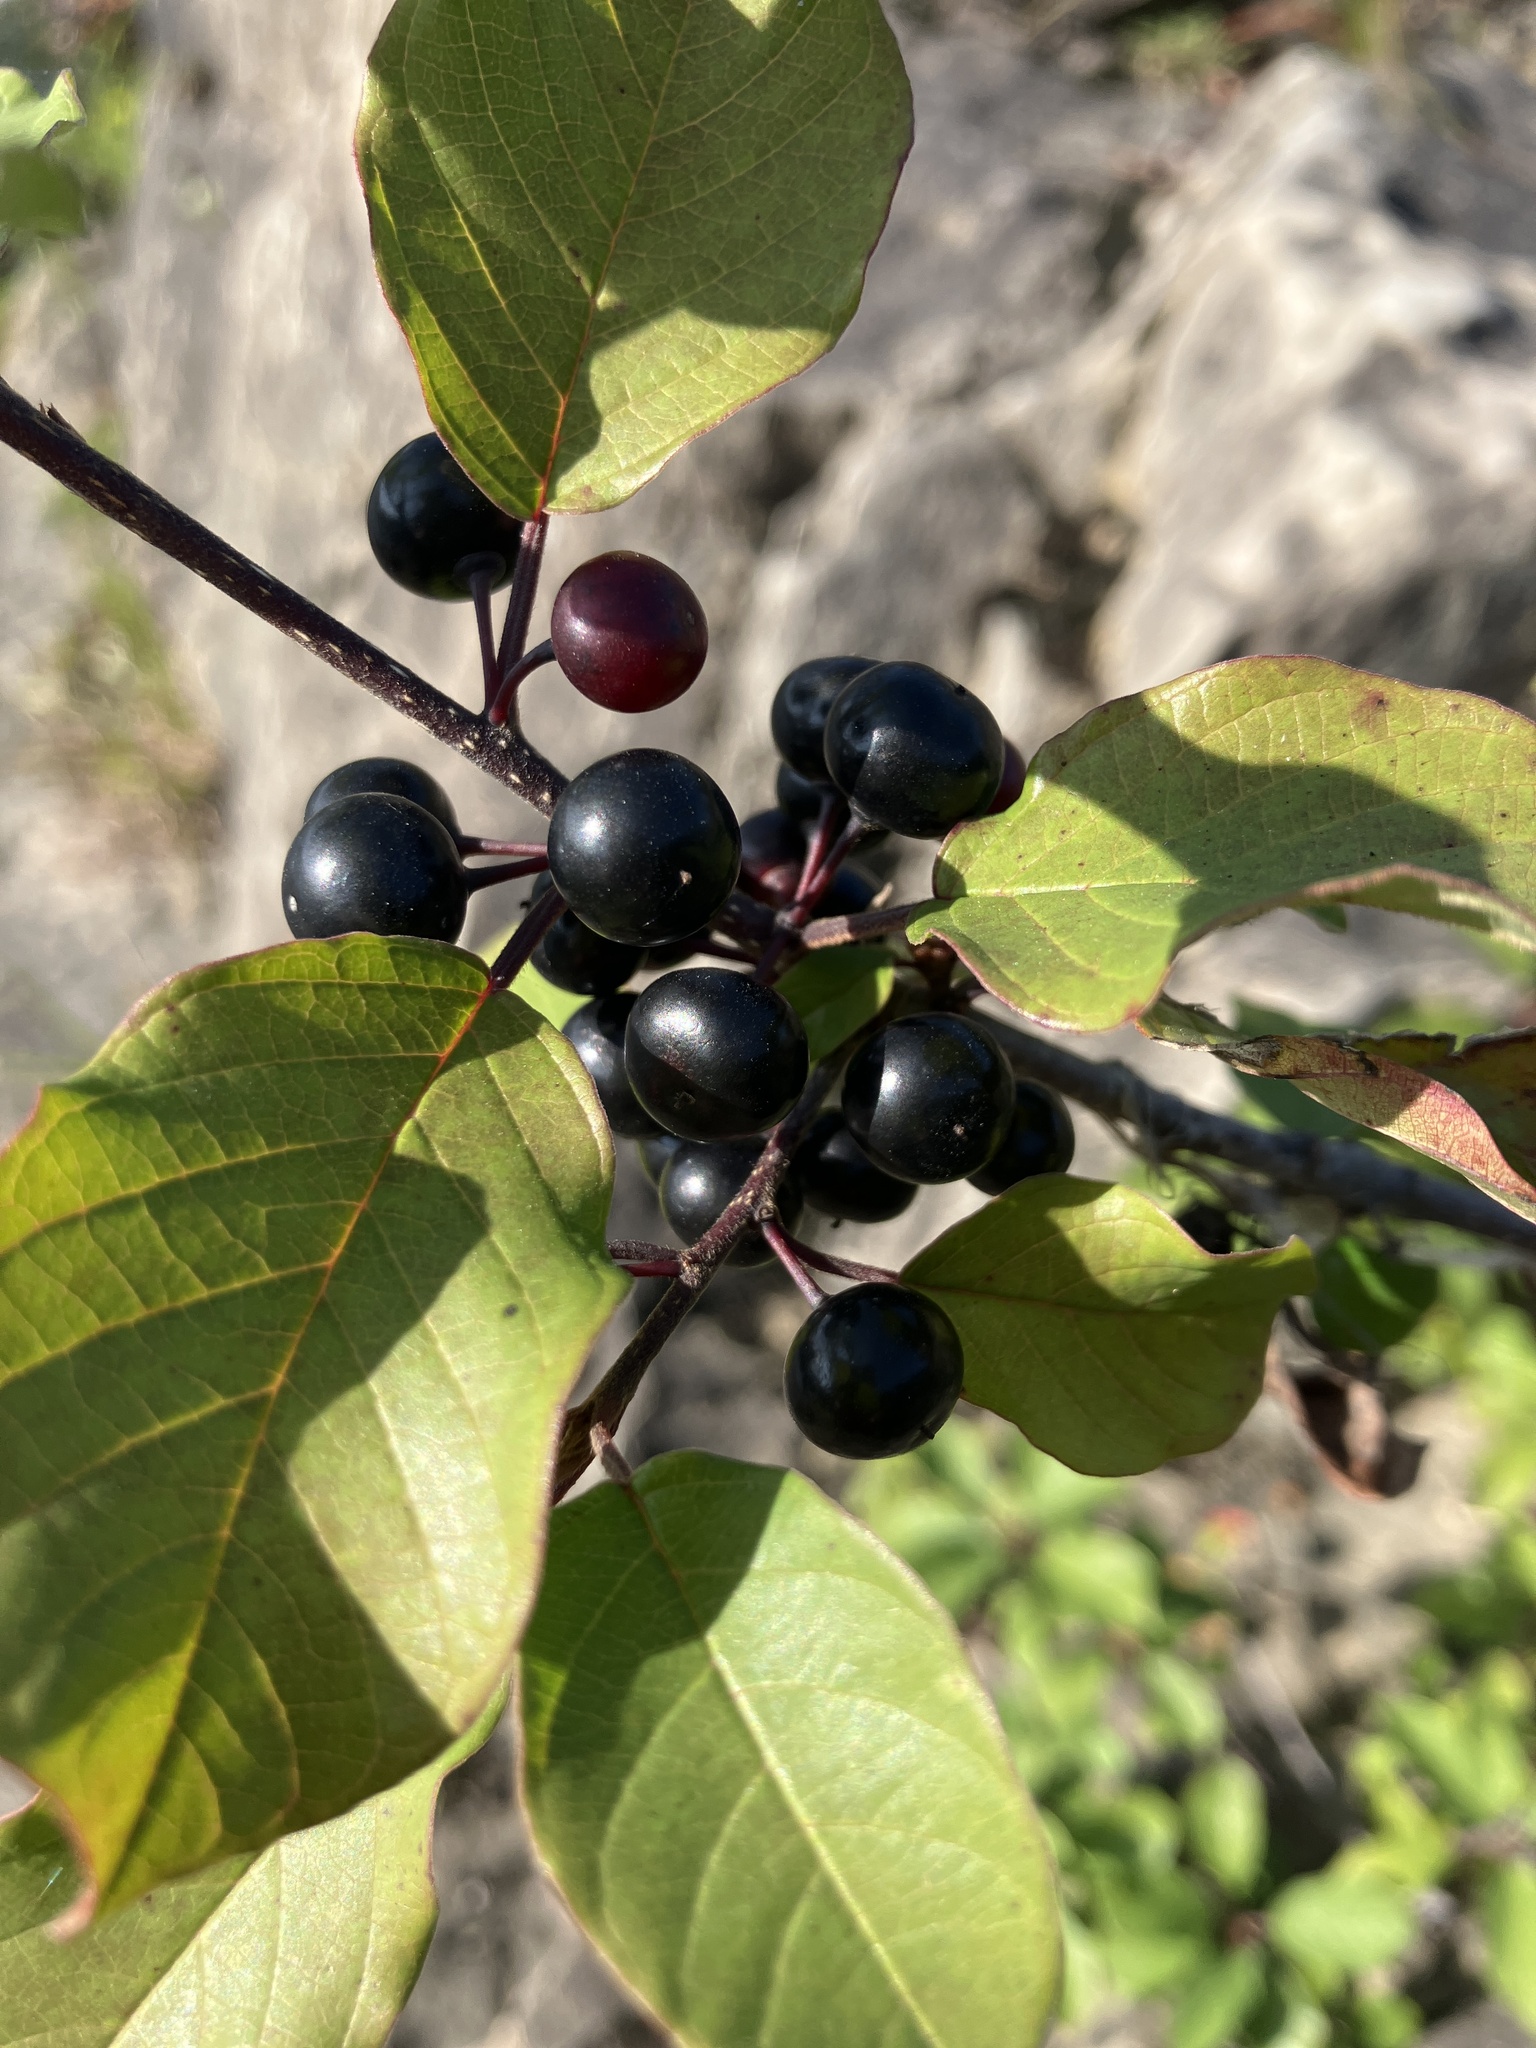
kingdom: Plantae
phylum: Tracheophyta
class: Magnoliopsida
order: Rosales
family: Rhamnaceae
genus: Frangula
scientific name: Frangula alnus
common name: Alder buckthorn
